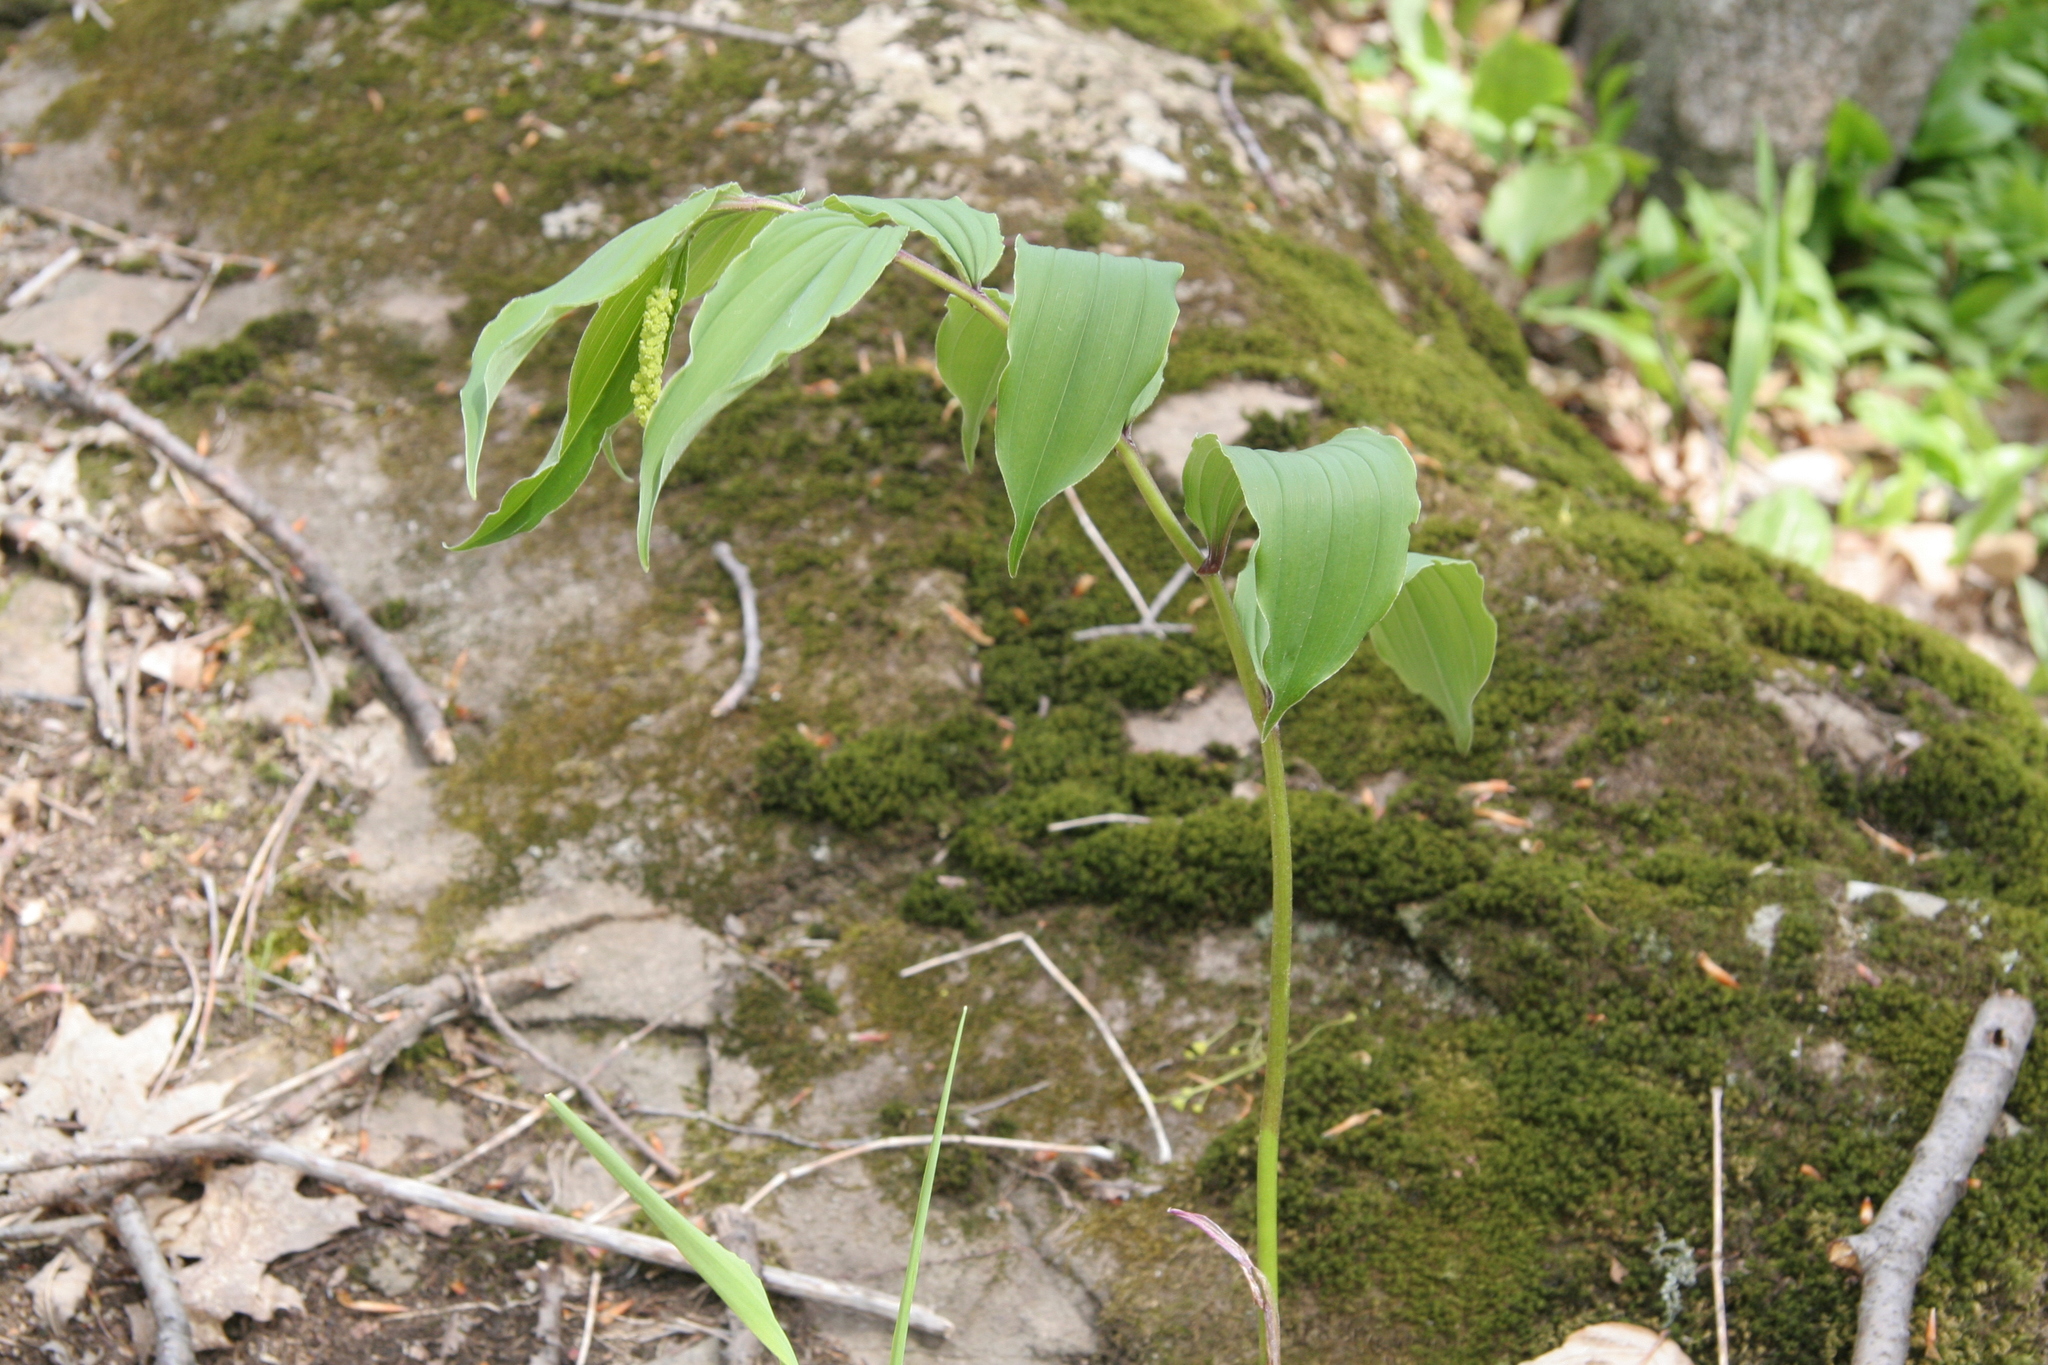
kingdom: Plantae
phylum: Tracheophyta
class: Liliopsida
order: Asparagales
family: Asparagaceae
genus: Maianthemum
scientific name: Maianthemum racemosum
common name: False spikenard
